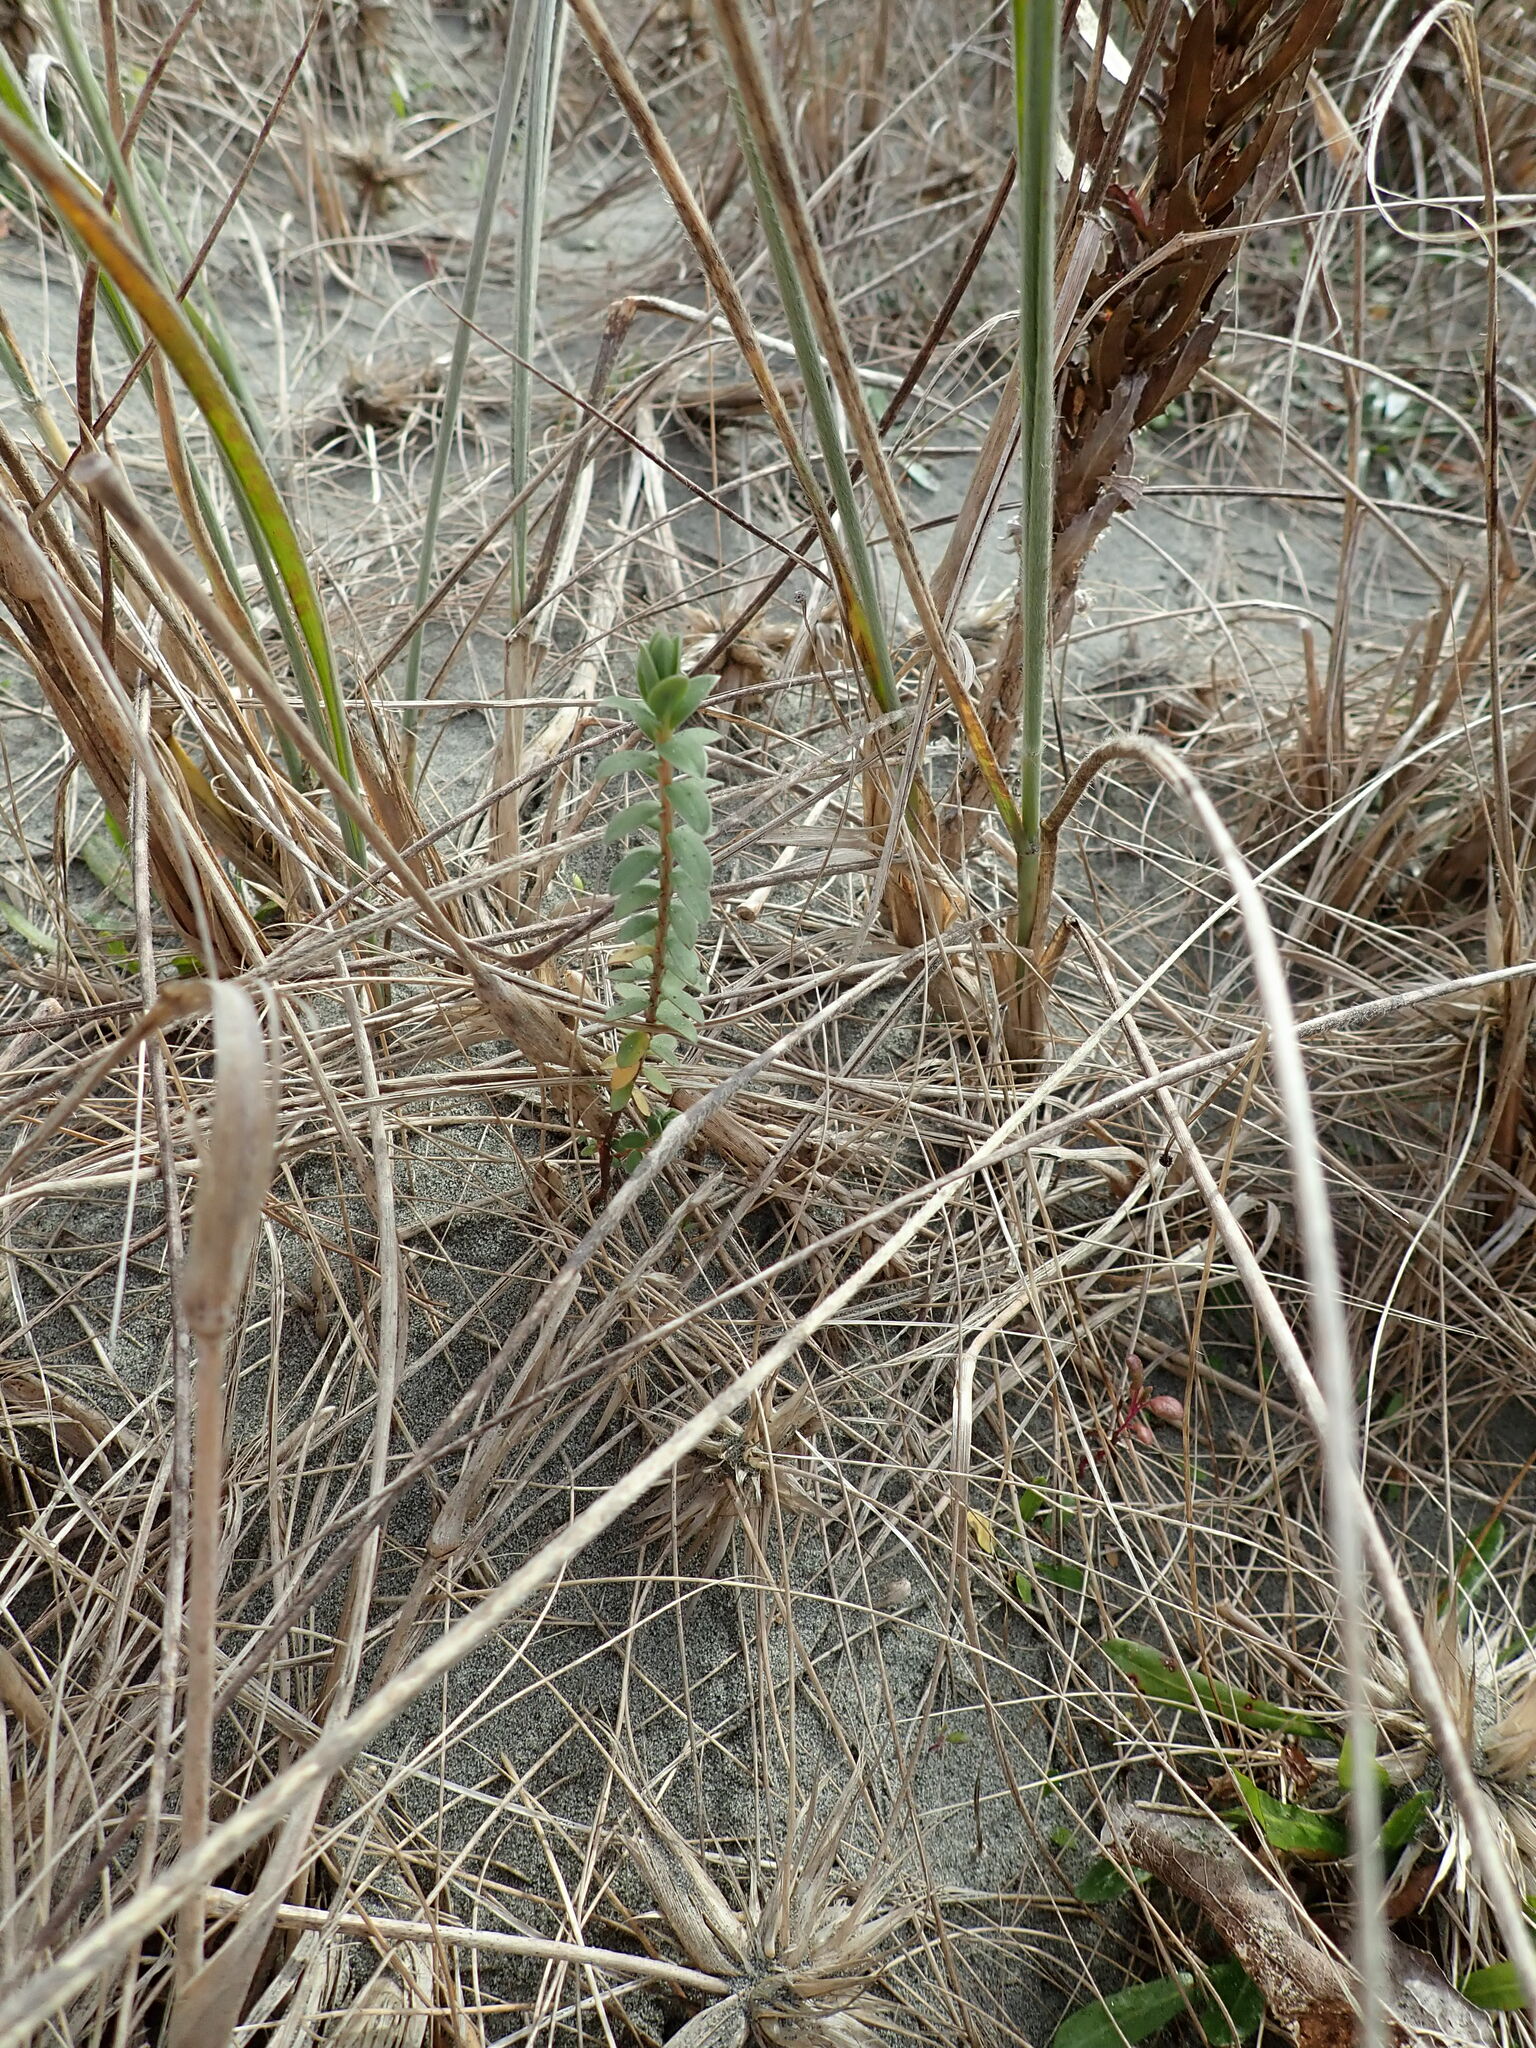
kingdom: Plantae
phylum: Tracheophyta
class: Magnoliopsida
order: Malvales
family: Thymelaeaceae
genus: Pimelea
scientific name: Pimelea villosa
